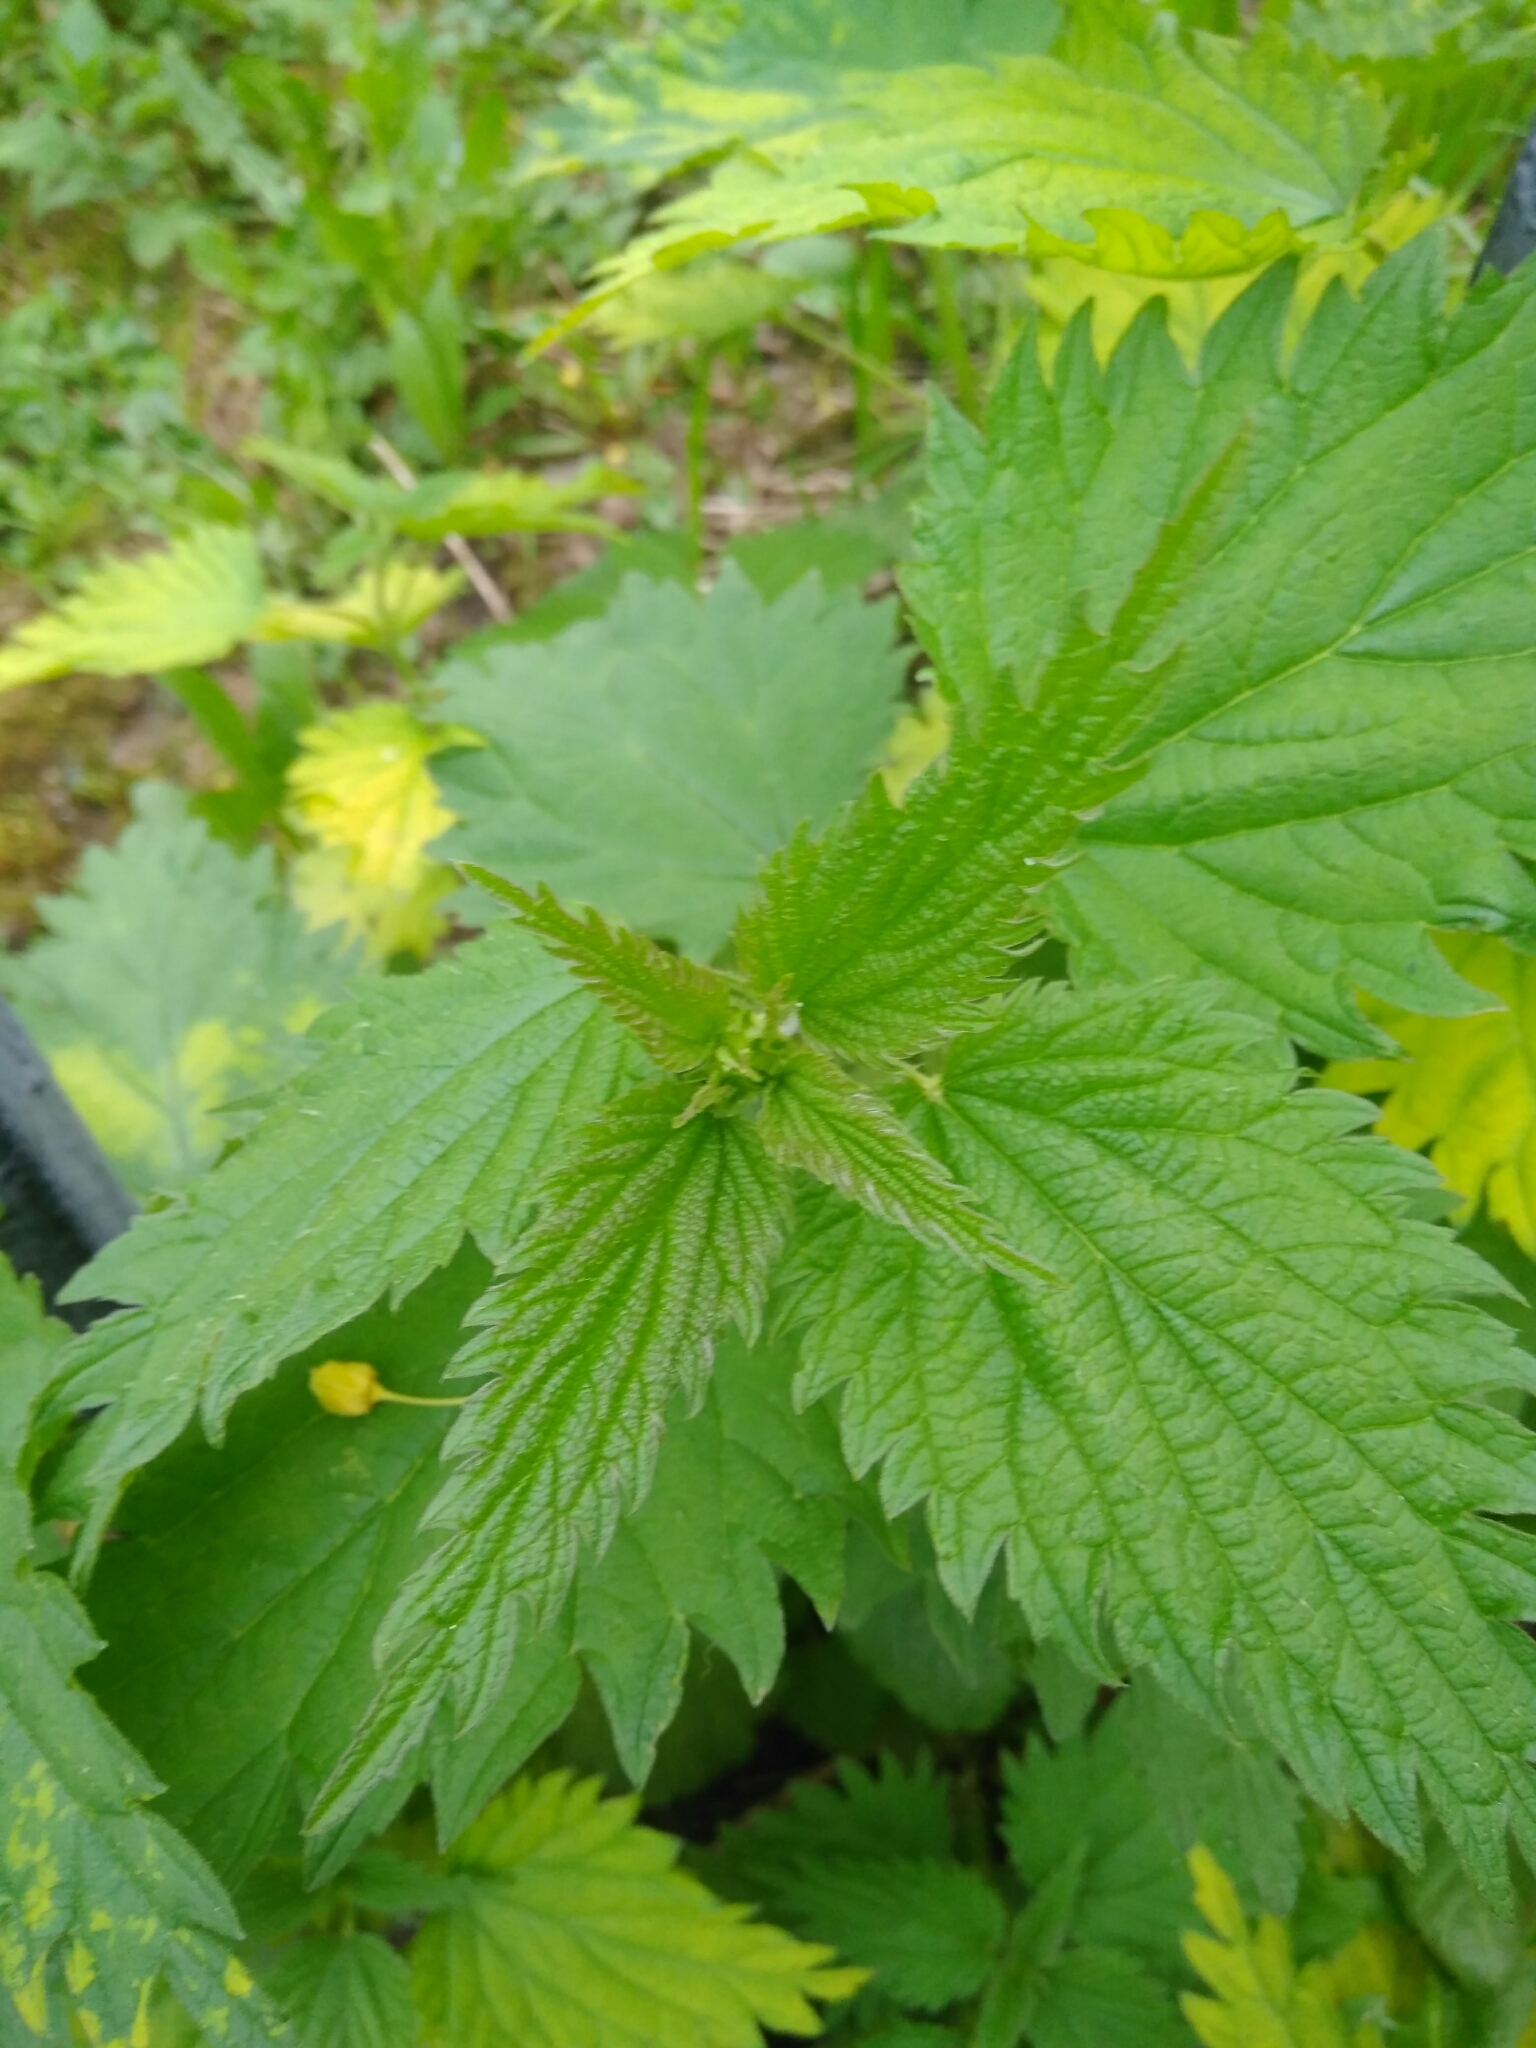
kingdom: Plantae
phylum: Tracheophyta
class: Magnoliopsida
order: Rosales
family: Urticaceae
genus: Urtica
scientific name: Urtica dioica
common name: Common nettle
